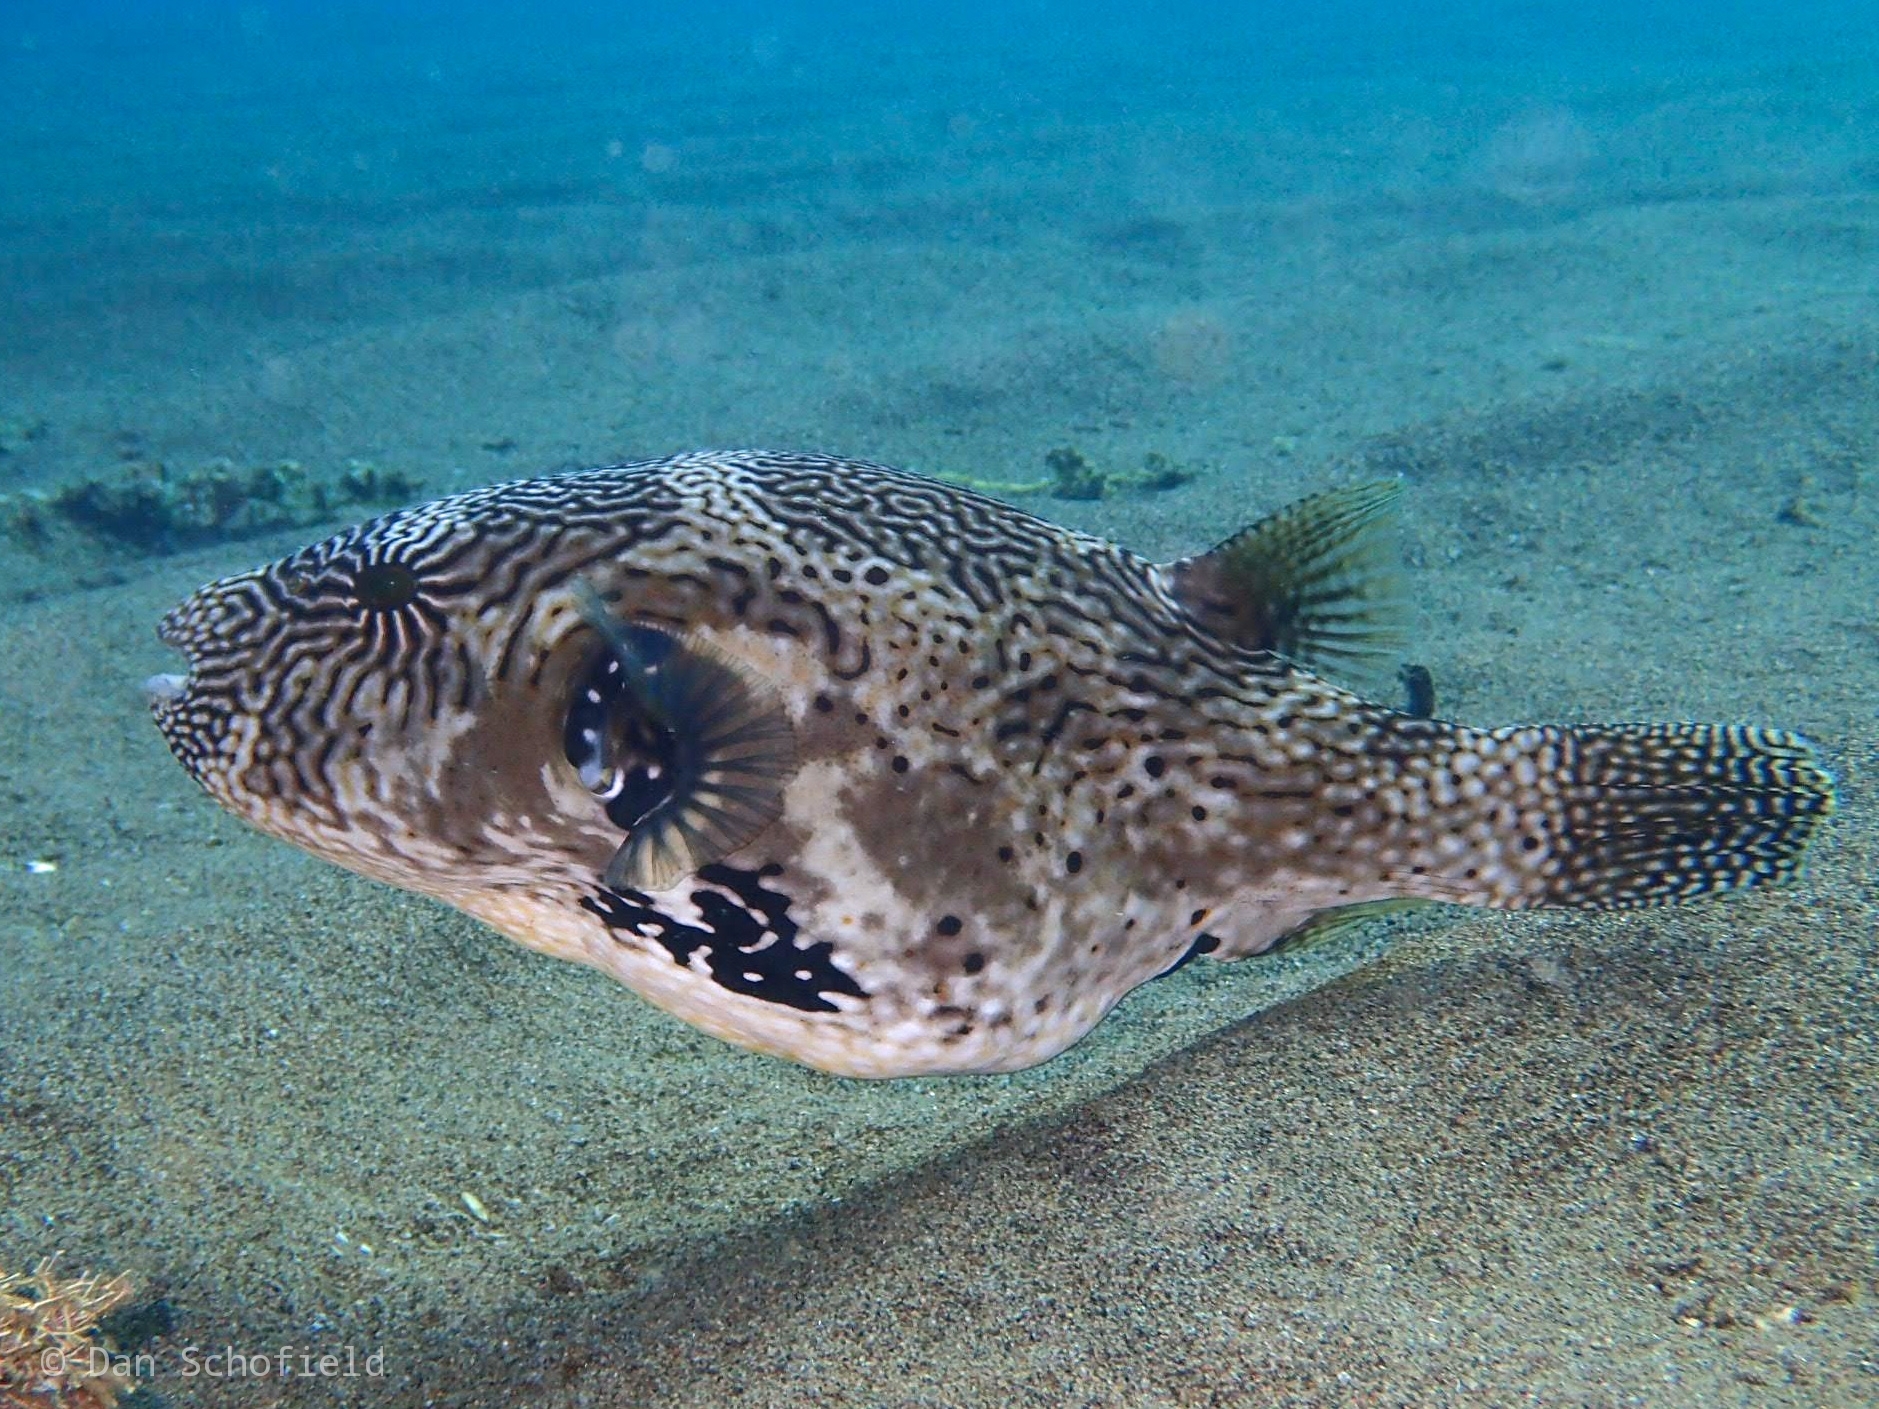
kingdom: Animalia
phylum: Chordata
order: Tetraodontiformes
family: Tetraodontidae
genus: Arothron
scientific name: Arothron mappa
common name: Map blaasop
